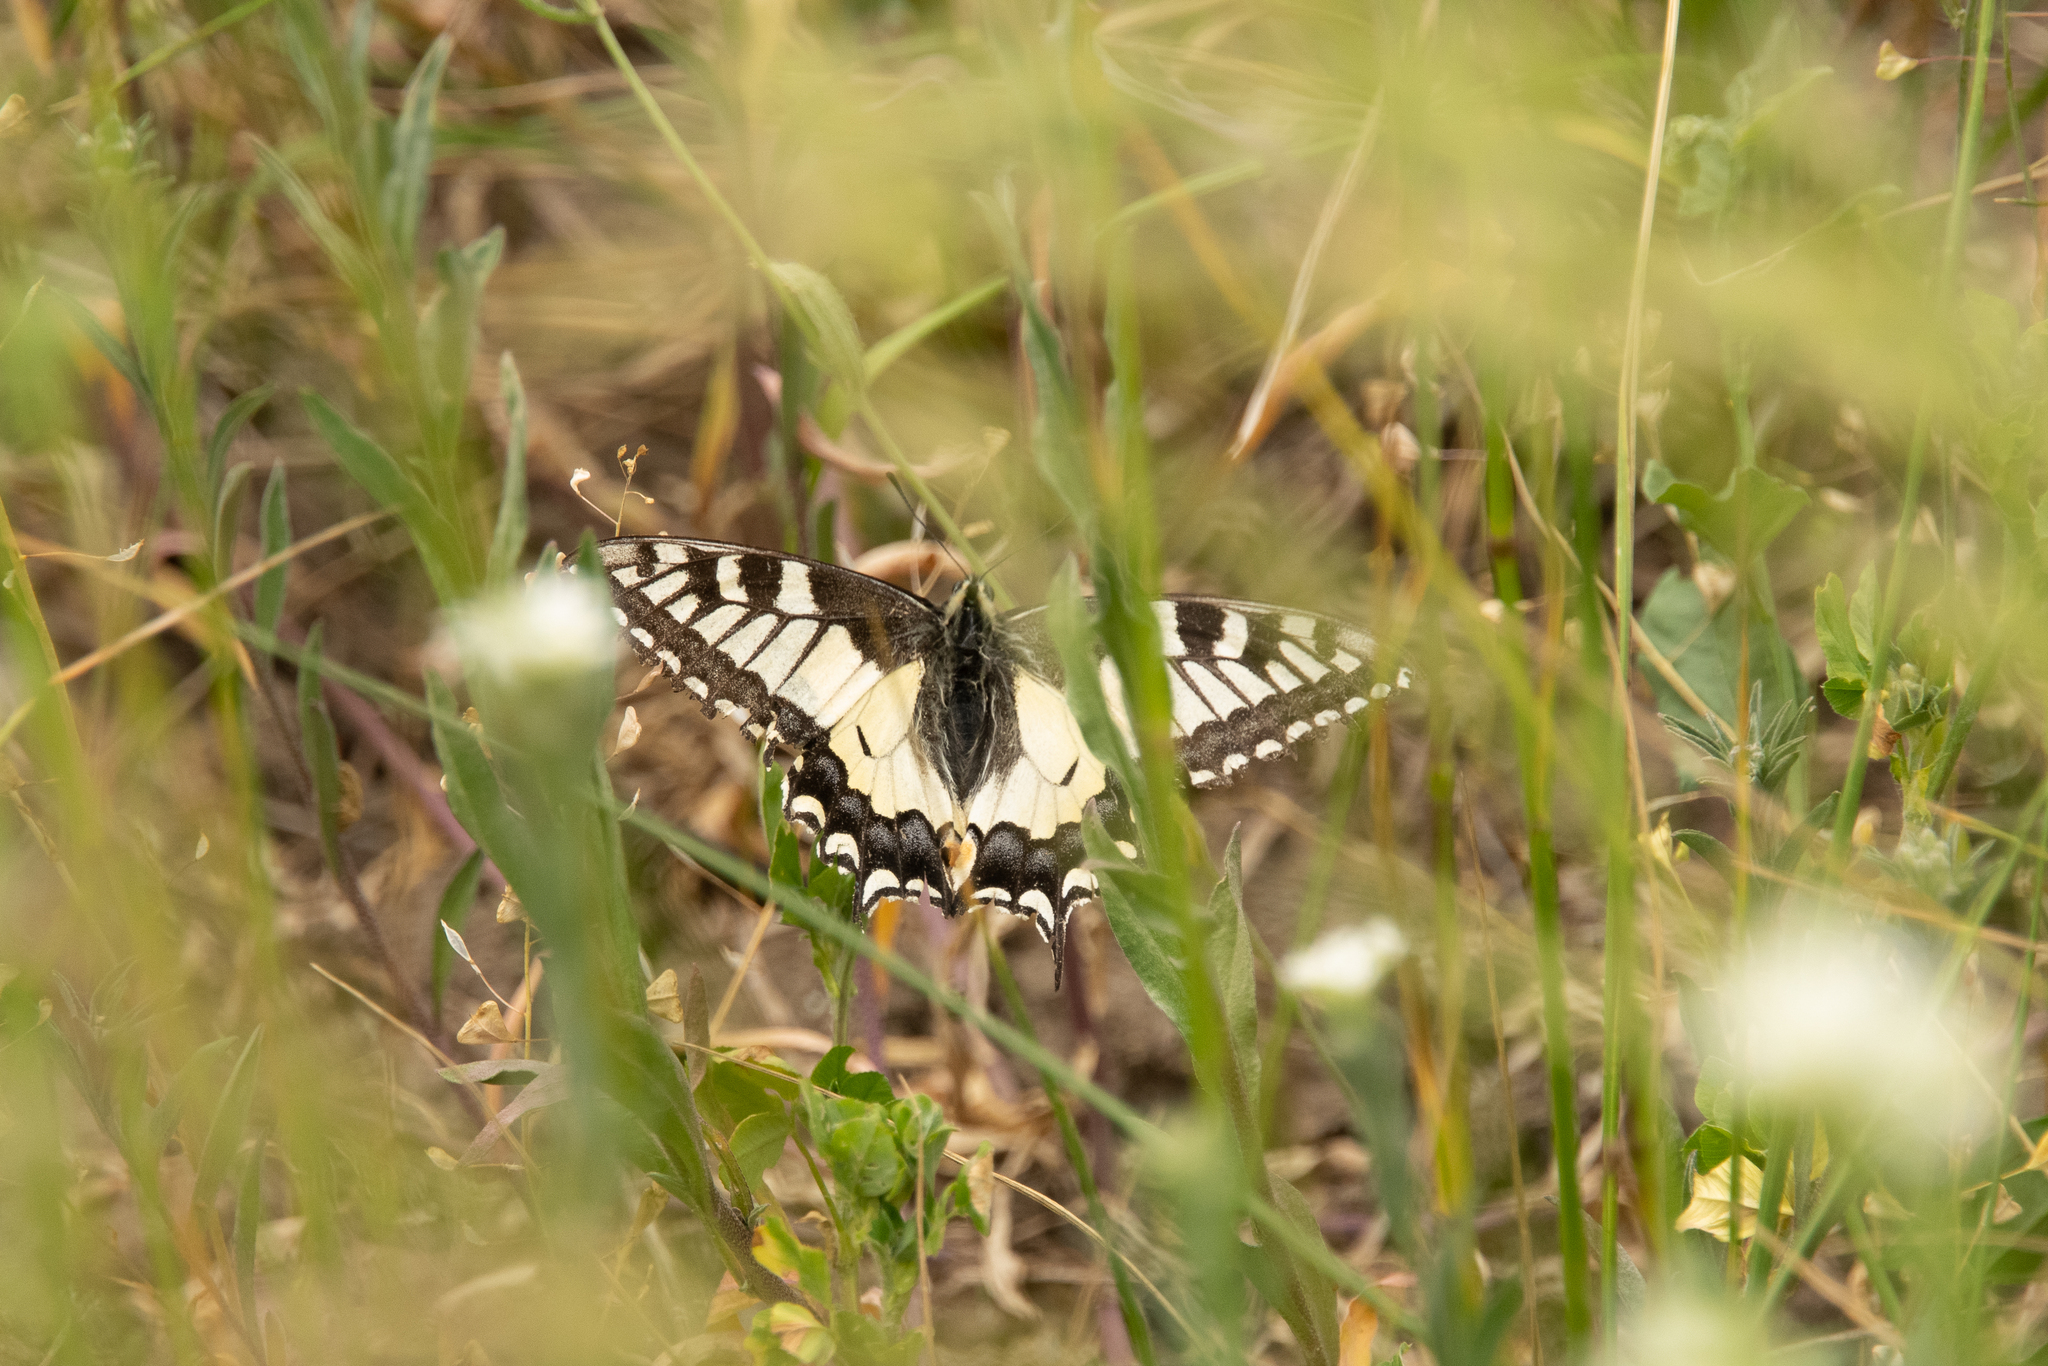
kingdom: Animalia
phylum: Arthropoda
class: Insecta
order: Lepidoptera
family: Papilionidae
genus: Papilio
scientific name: Papilio machaon
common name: Swallowtail
